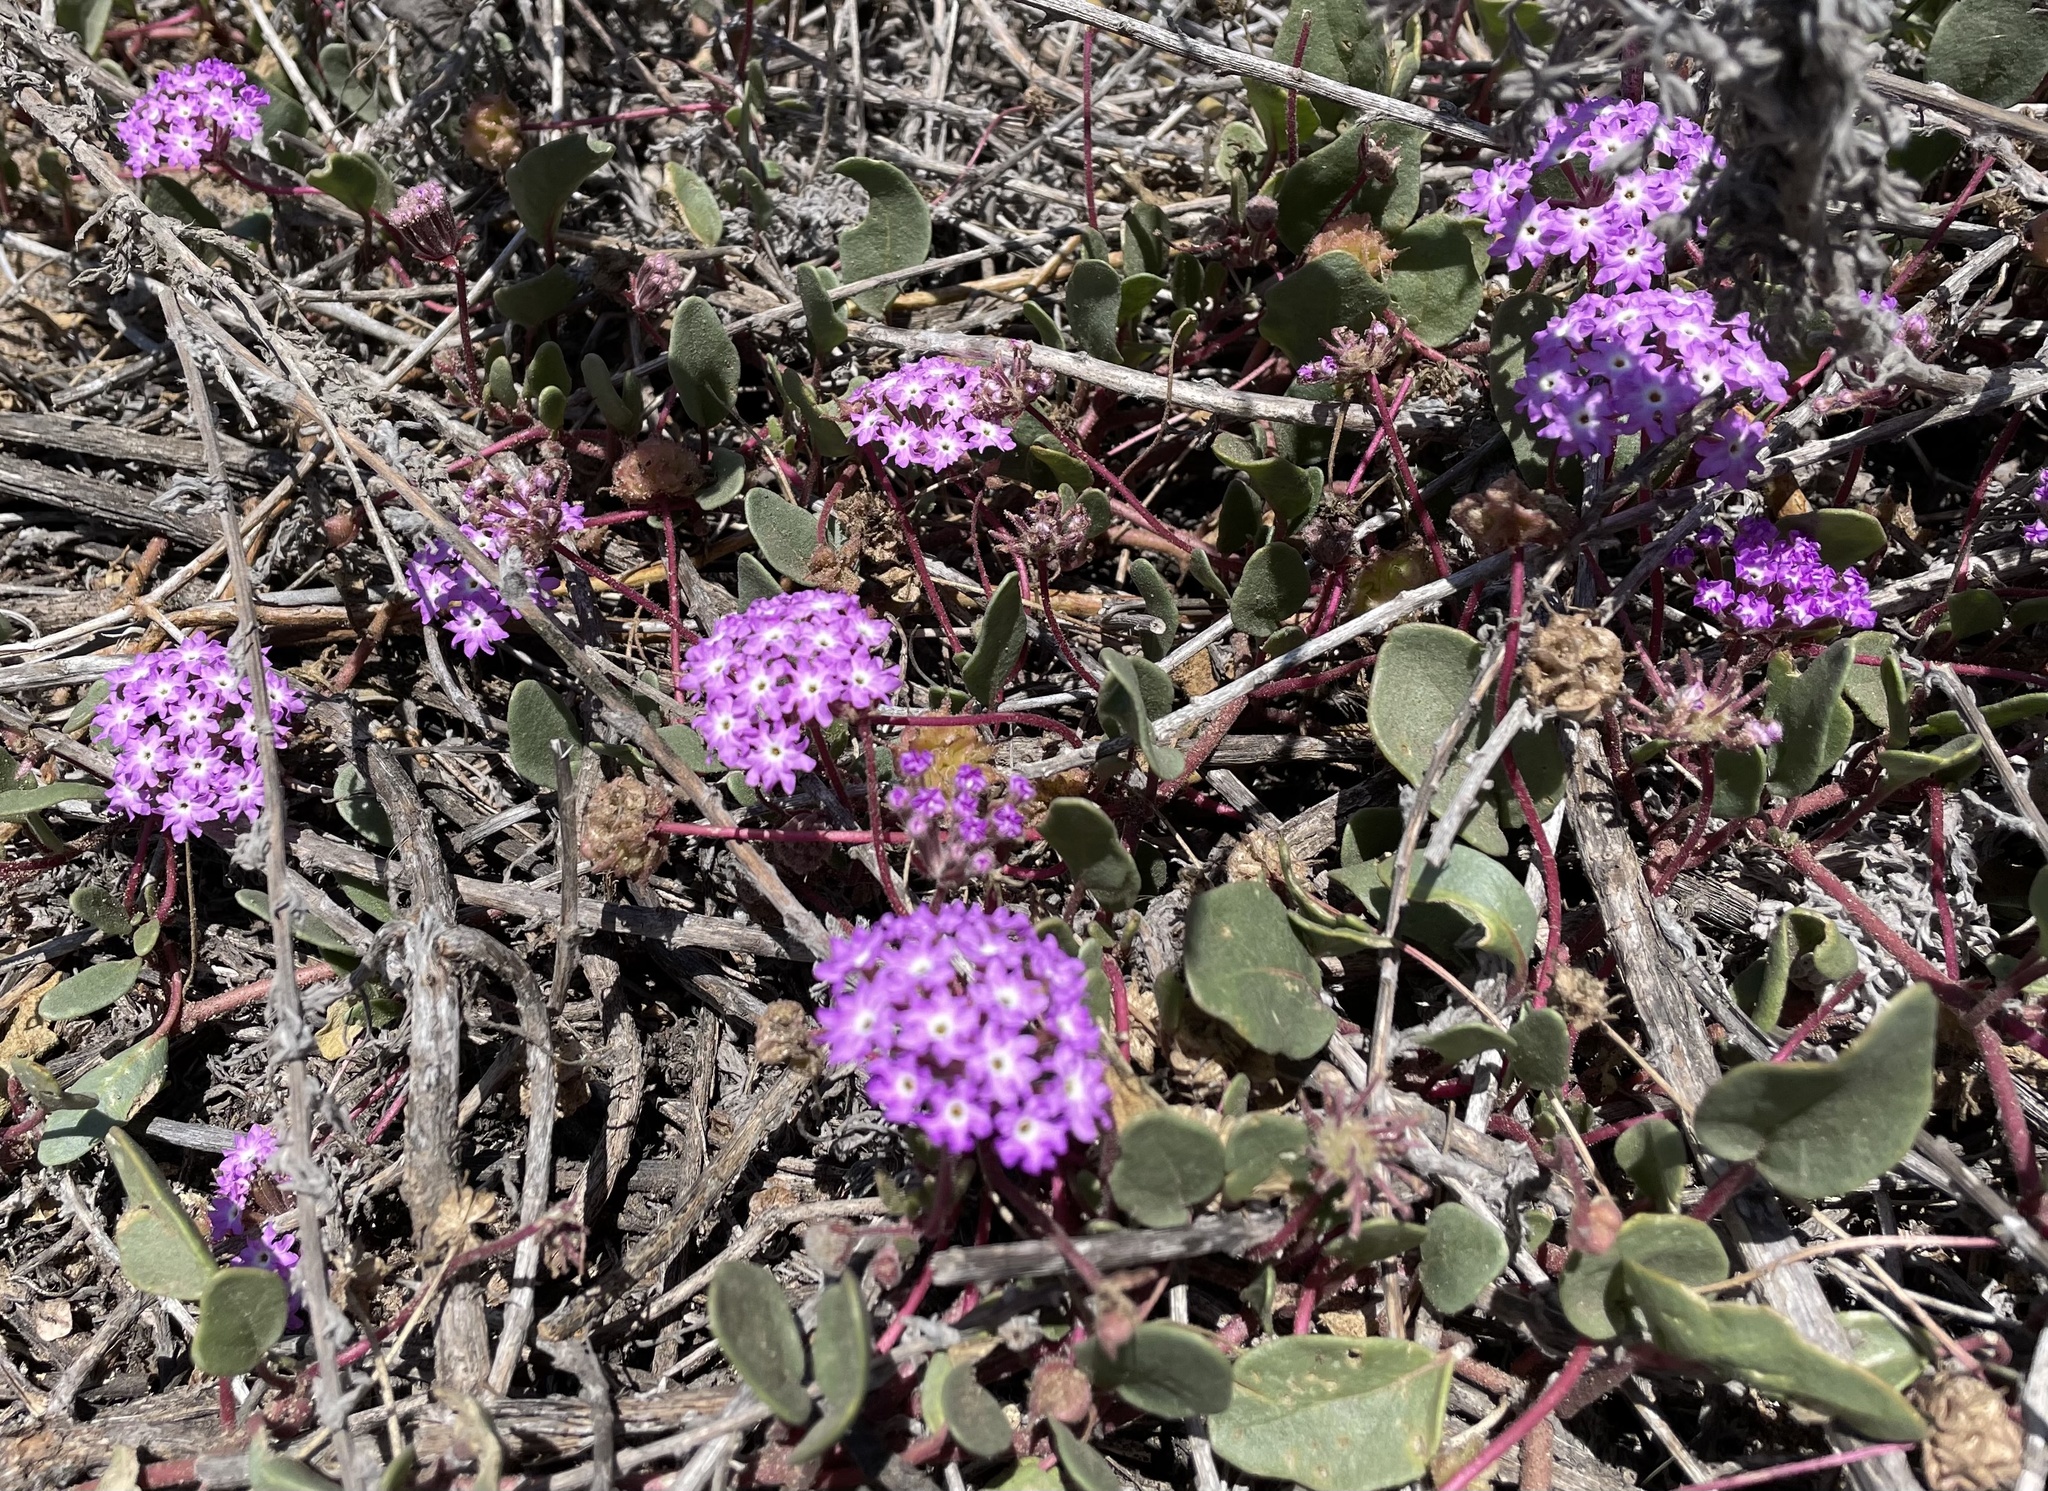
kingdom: Plantae
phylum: Tracheophyta
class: Magnoliopsida
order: Caryophyllales
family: Nyctaginaceae
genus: Abronia
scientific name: Abronia umbellata
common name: Sand-verbena
